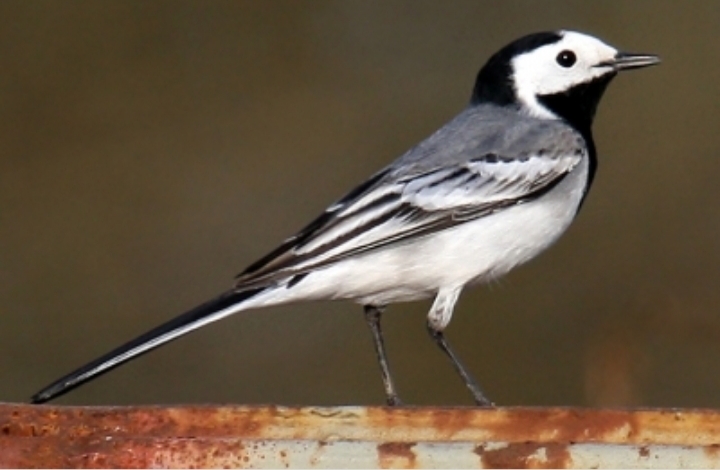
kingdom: Animalia
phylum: Chordata
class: Aves
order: Passeriformes
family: Motacillidae
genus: Motacilla
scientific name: Motacilla alba
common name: White wagtail
